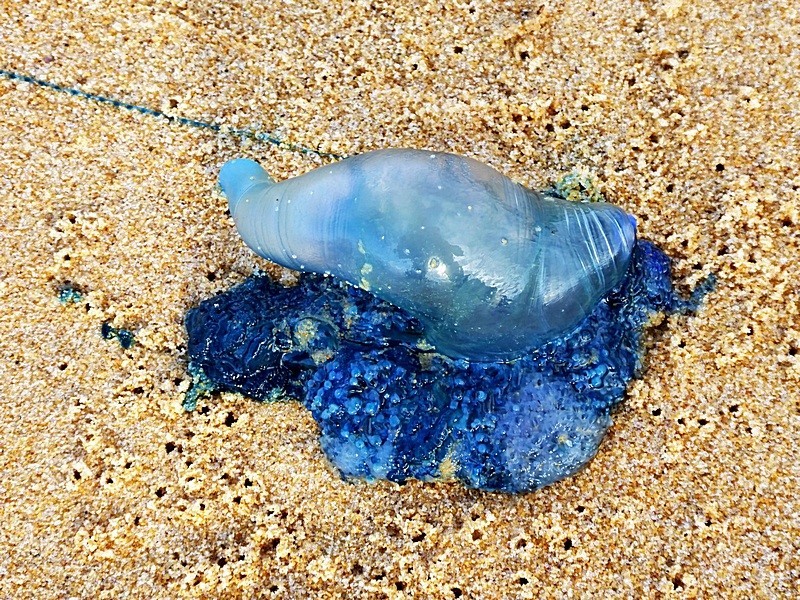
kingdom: Animalia
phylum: Cnidaria
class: Hydrozoa
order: Siphonophorae
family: Physaliidae
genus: Physalia
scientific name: Physalia physalis
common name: Portuguese man-of-war
